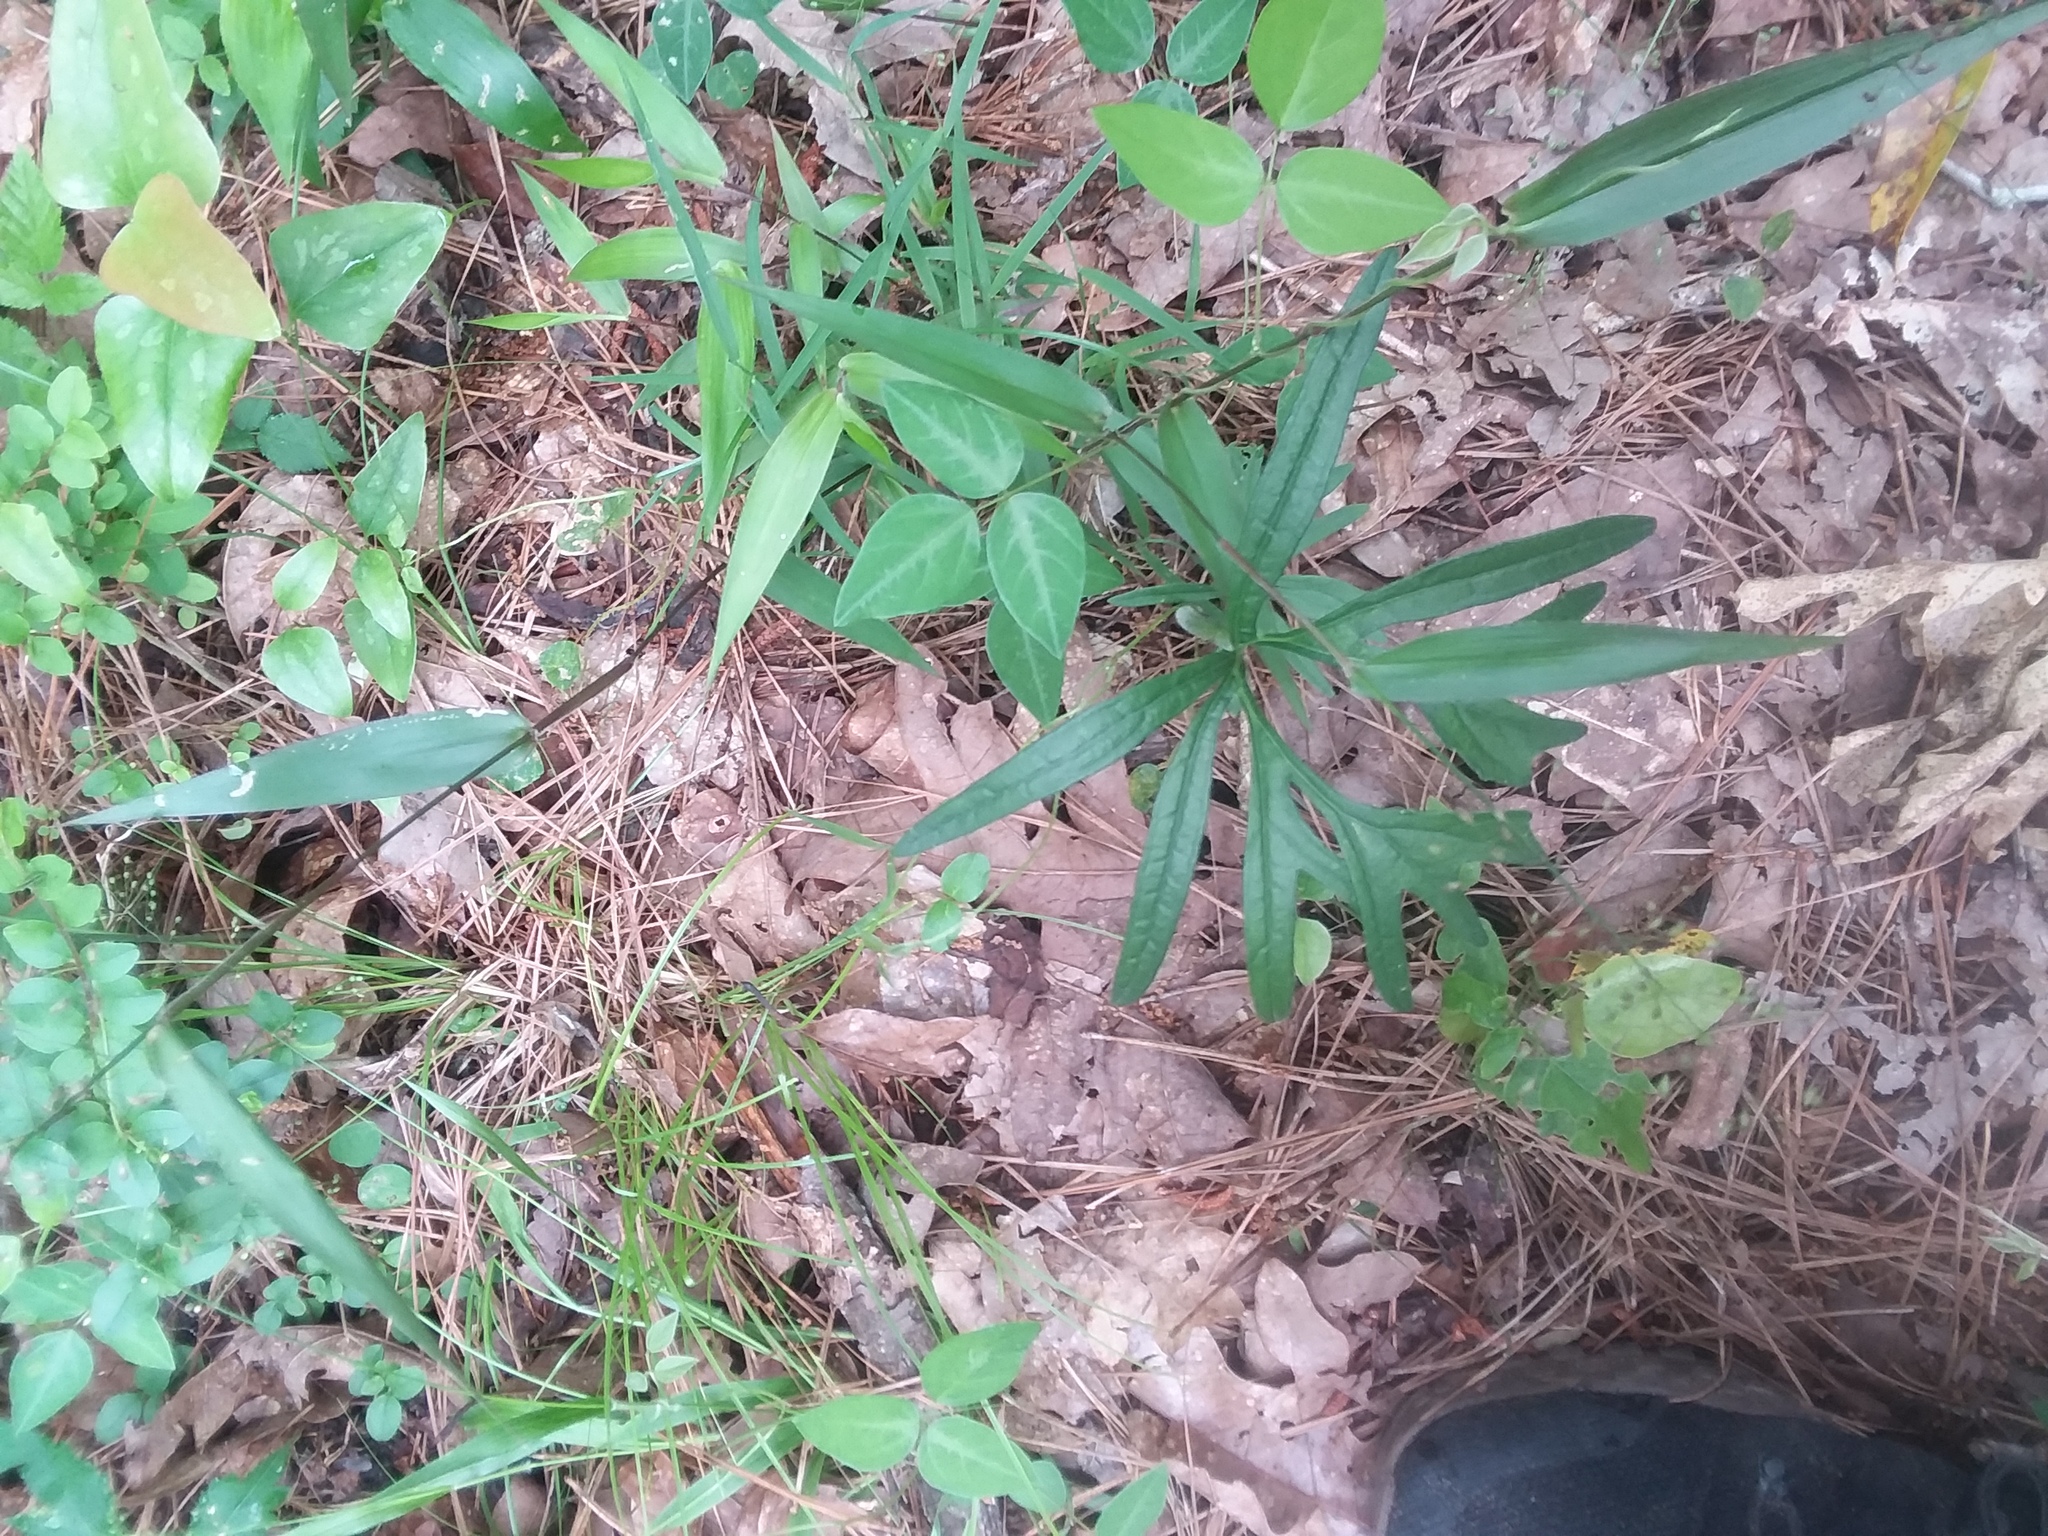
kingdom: Plantae
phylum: Tracheophyta
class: Magnoliopsida
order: Malpighiales
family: Violaceae
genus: Viola
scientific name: Viola palmata
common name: Early blue violet
